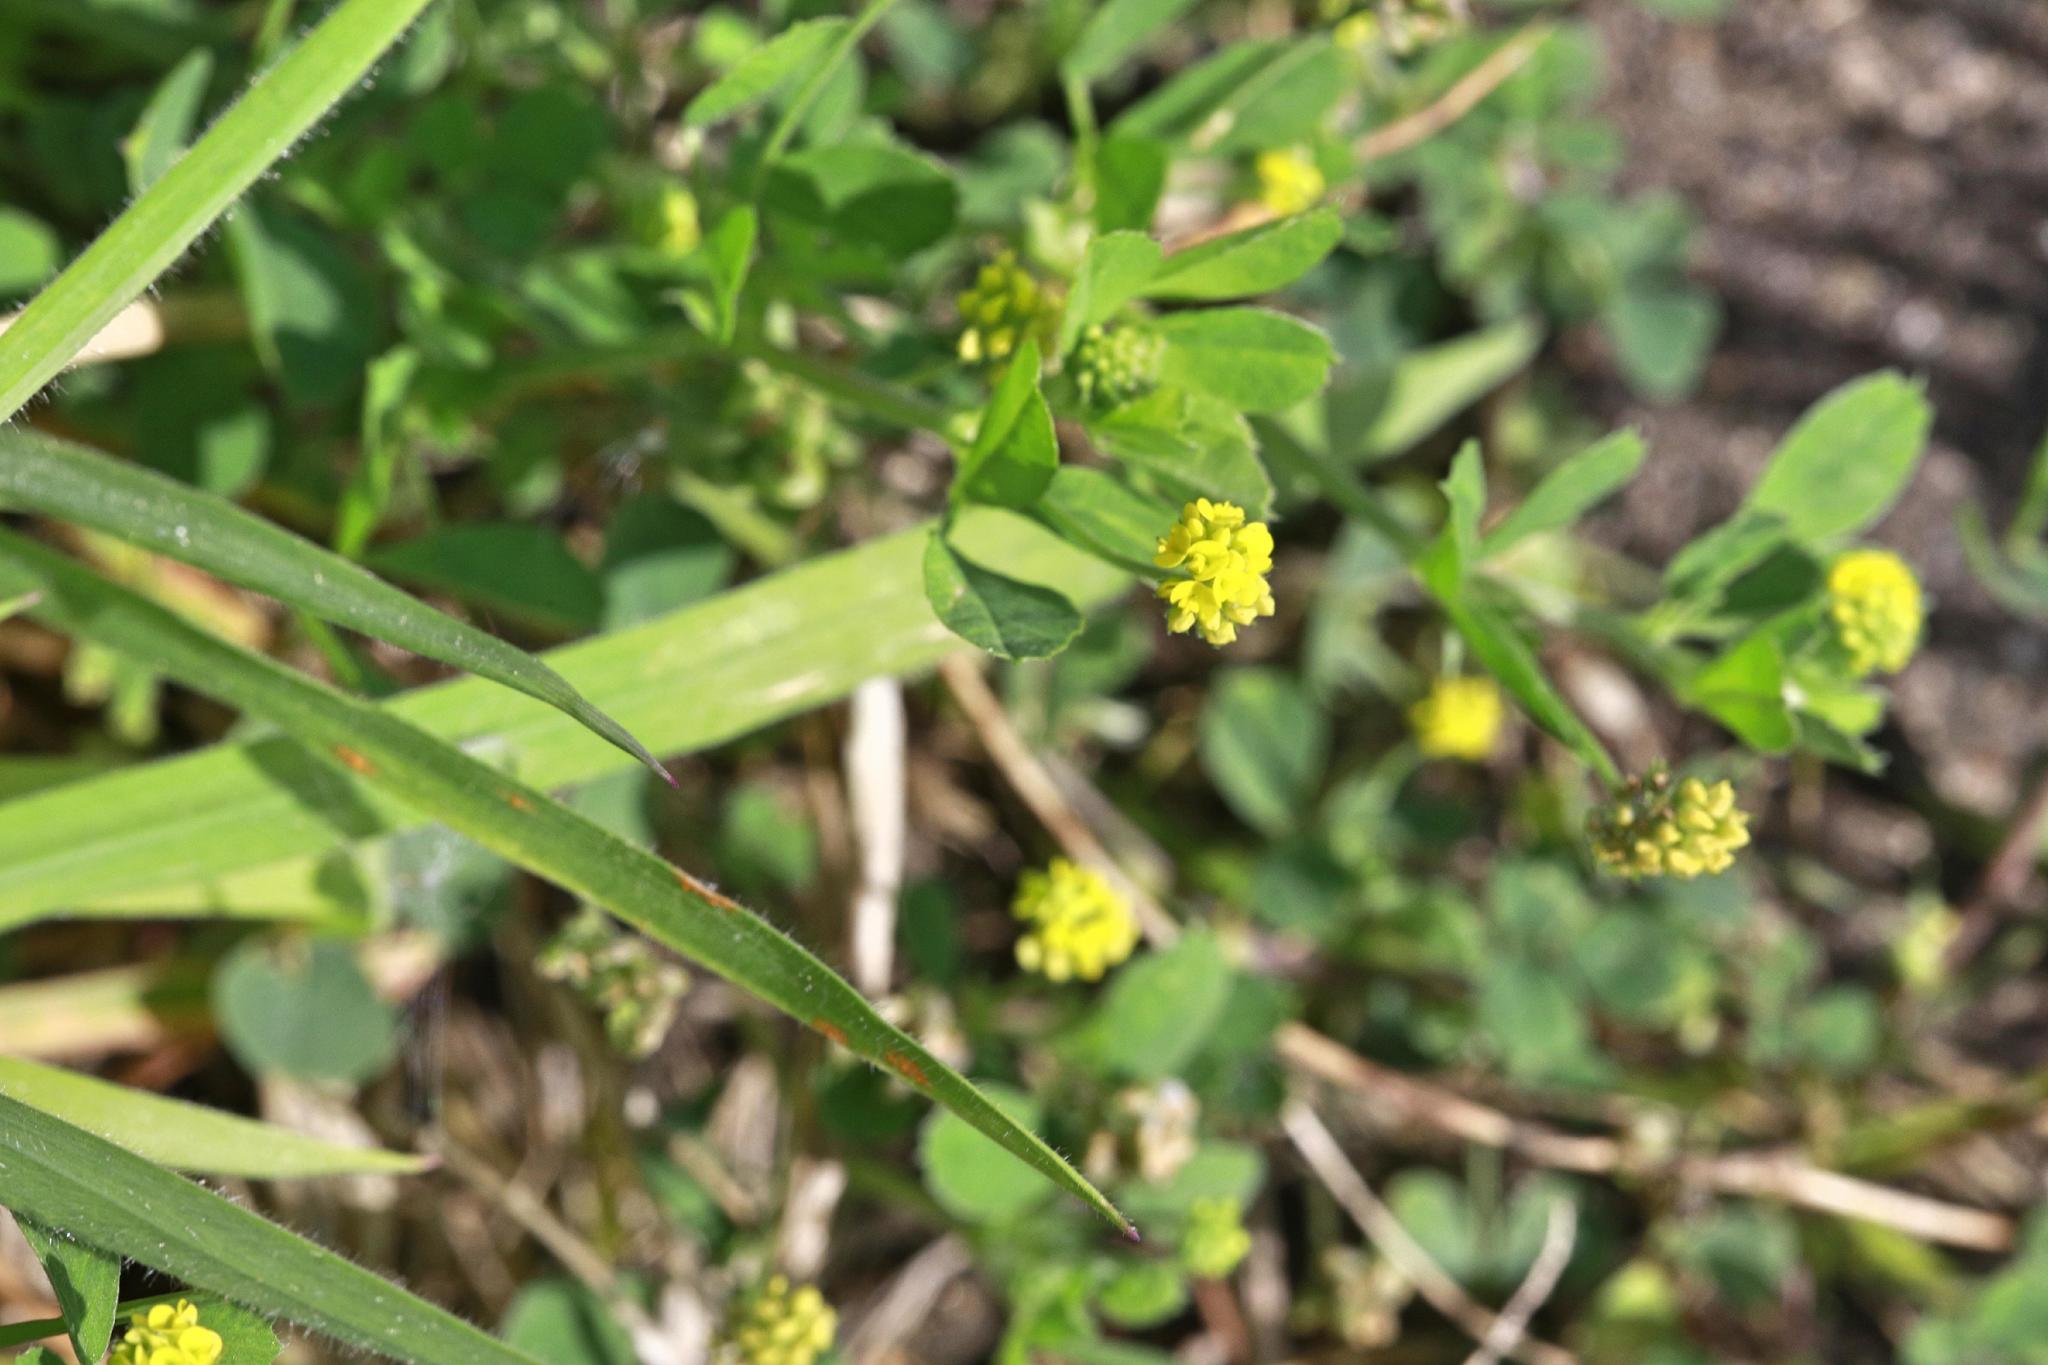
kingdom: Plantae
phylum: Tracheophyta
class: Magnoliopsida
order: Fabales
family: Fabaceae
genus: Medicago
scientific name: Medicago lupulina
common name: Black medick
